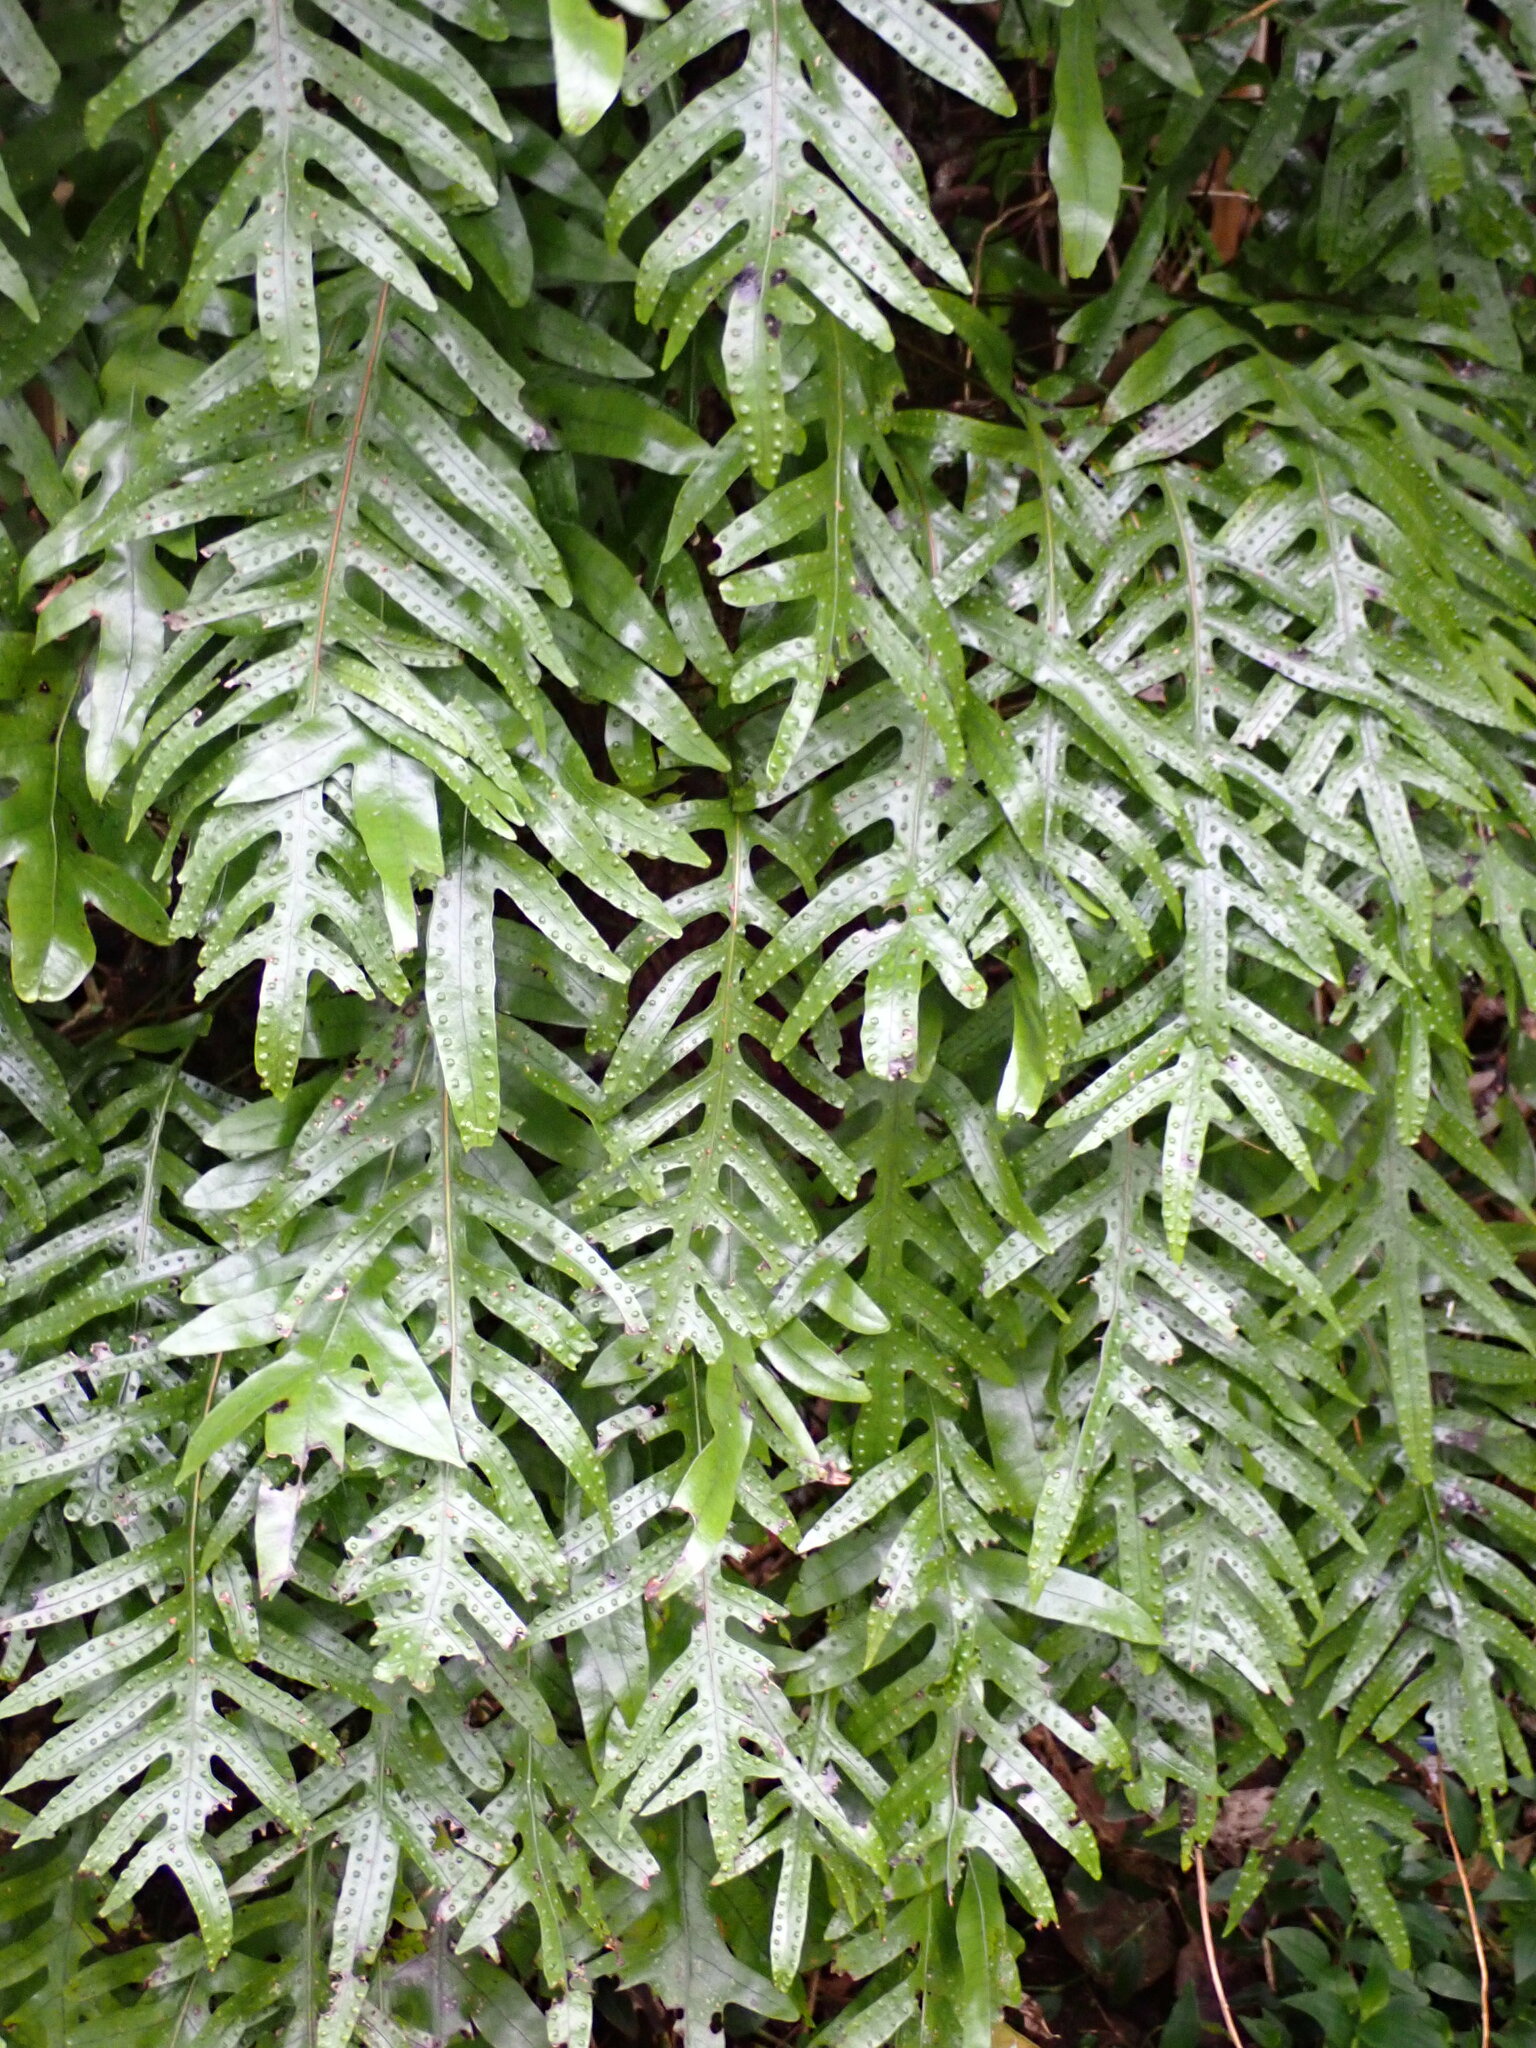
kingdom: Plantae
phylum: Tracheophyta
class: Polypodiopsida
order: Polypodiales
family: Polypodiaceae
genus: Lecanopteris
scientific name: Lecanopteris pustulata
